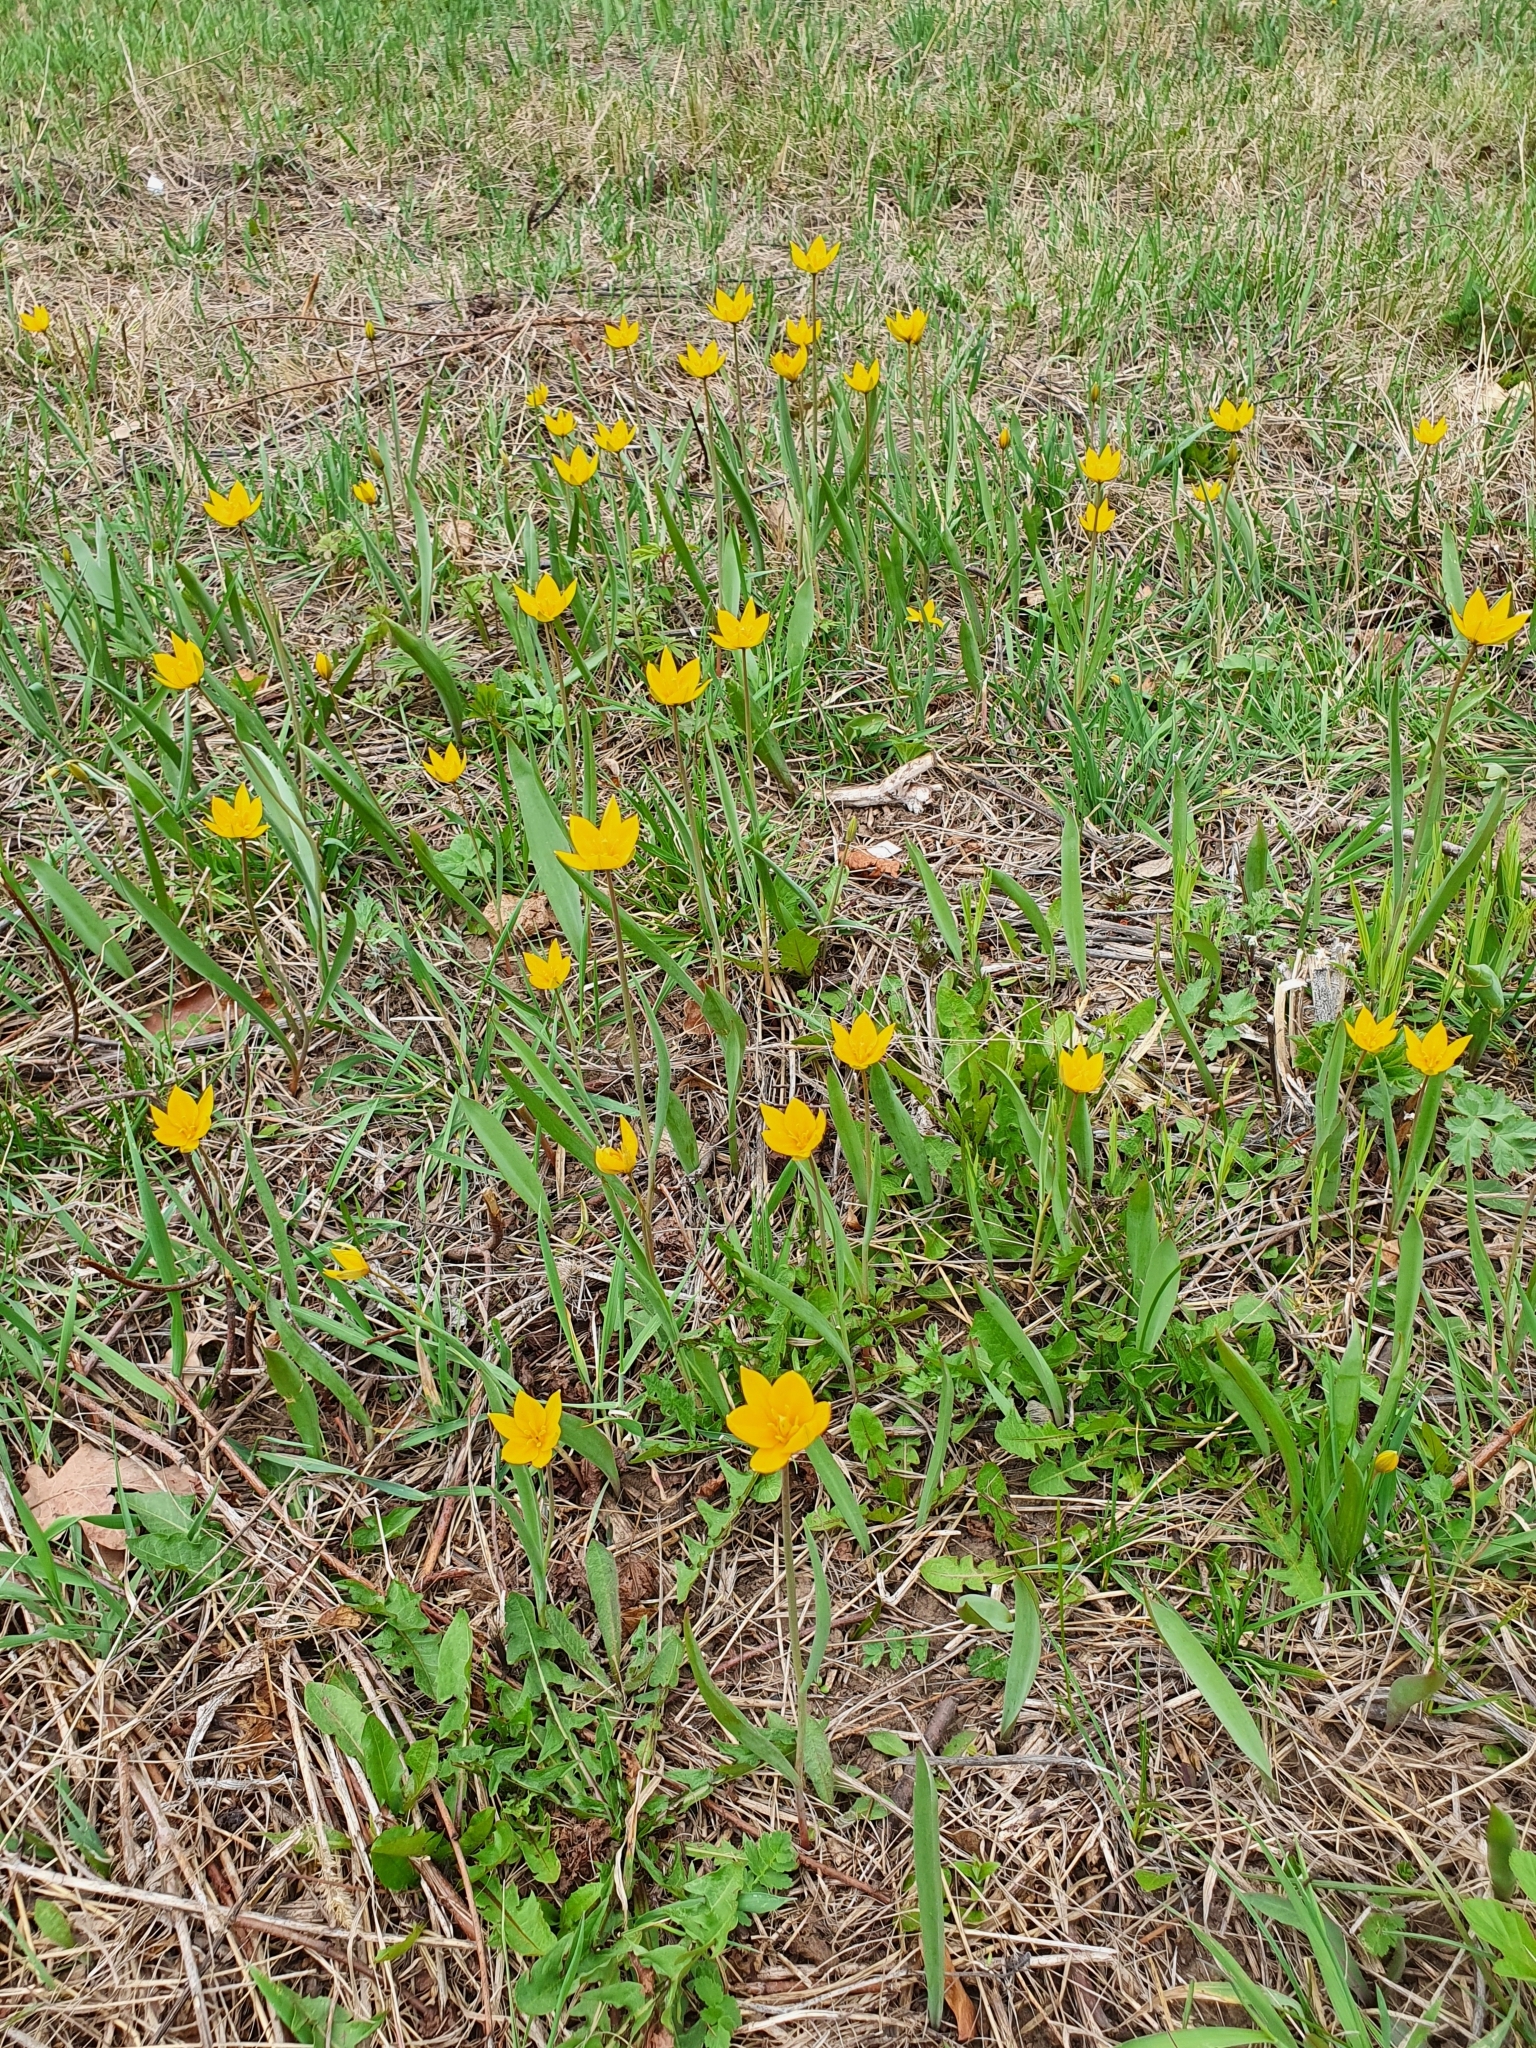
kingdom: Plantae
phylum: Tracheophyta
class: Liliopsida
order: Liliales
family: Liliaceae
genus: Tulipa
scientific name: Tulipa sylvestris
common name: Wild tulip
